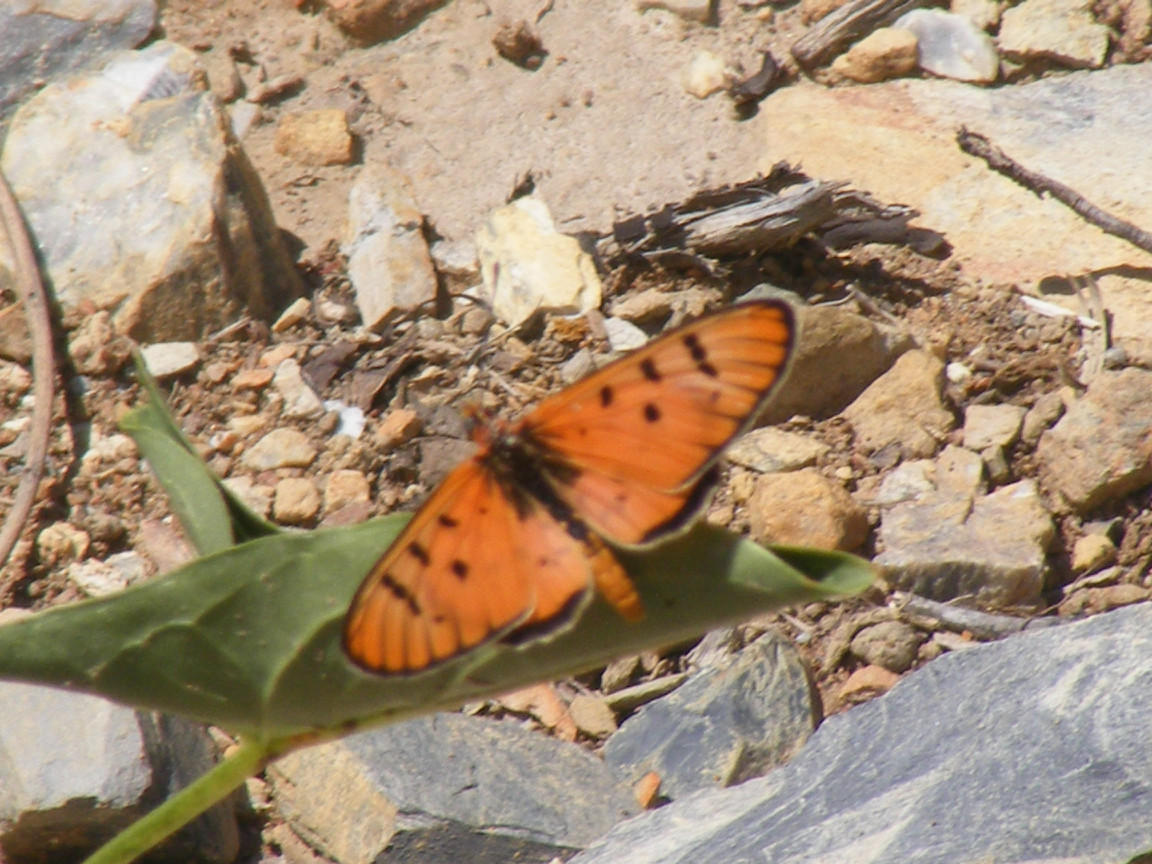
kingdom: Animalia
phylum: Arthropoda
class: Insecta
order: Lepidoptera
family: Nymphalidae
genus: Rubraea
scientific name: Rubraea
